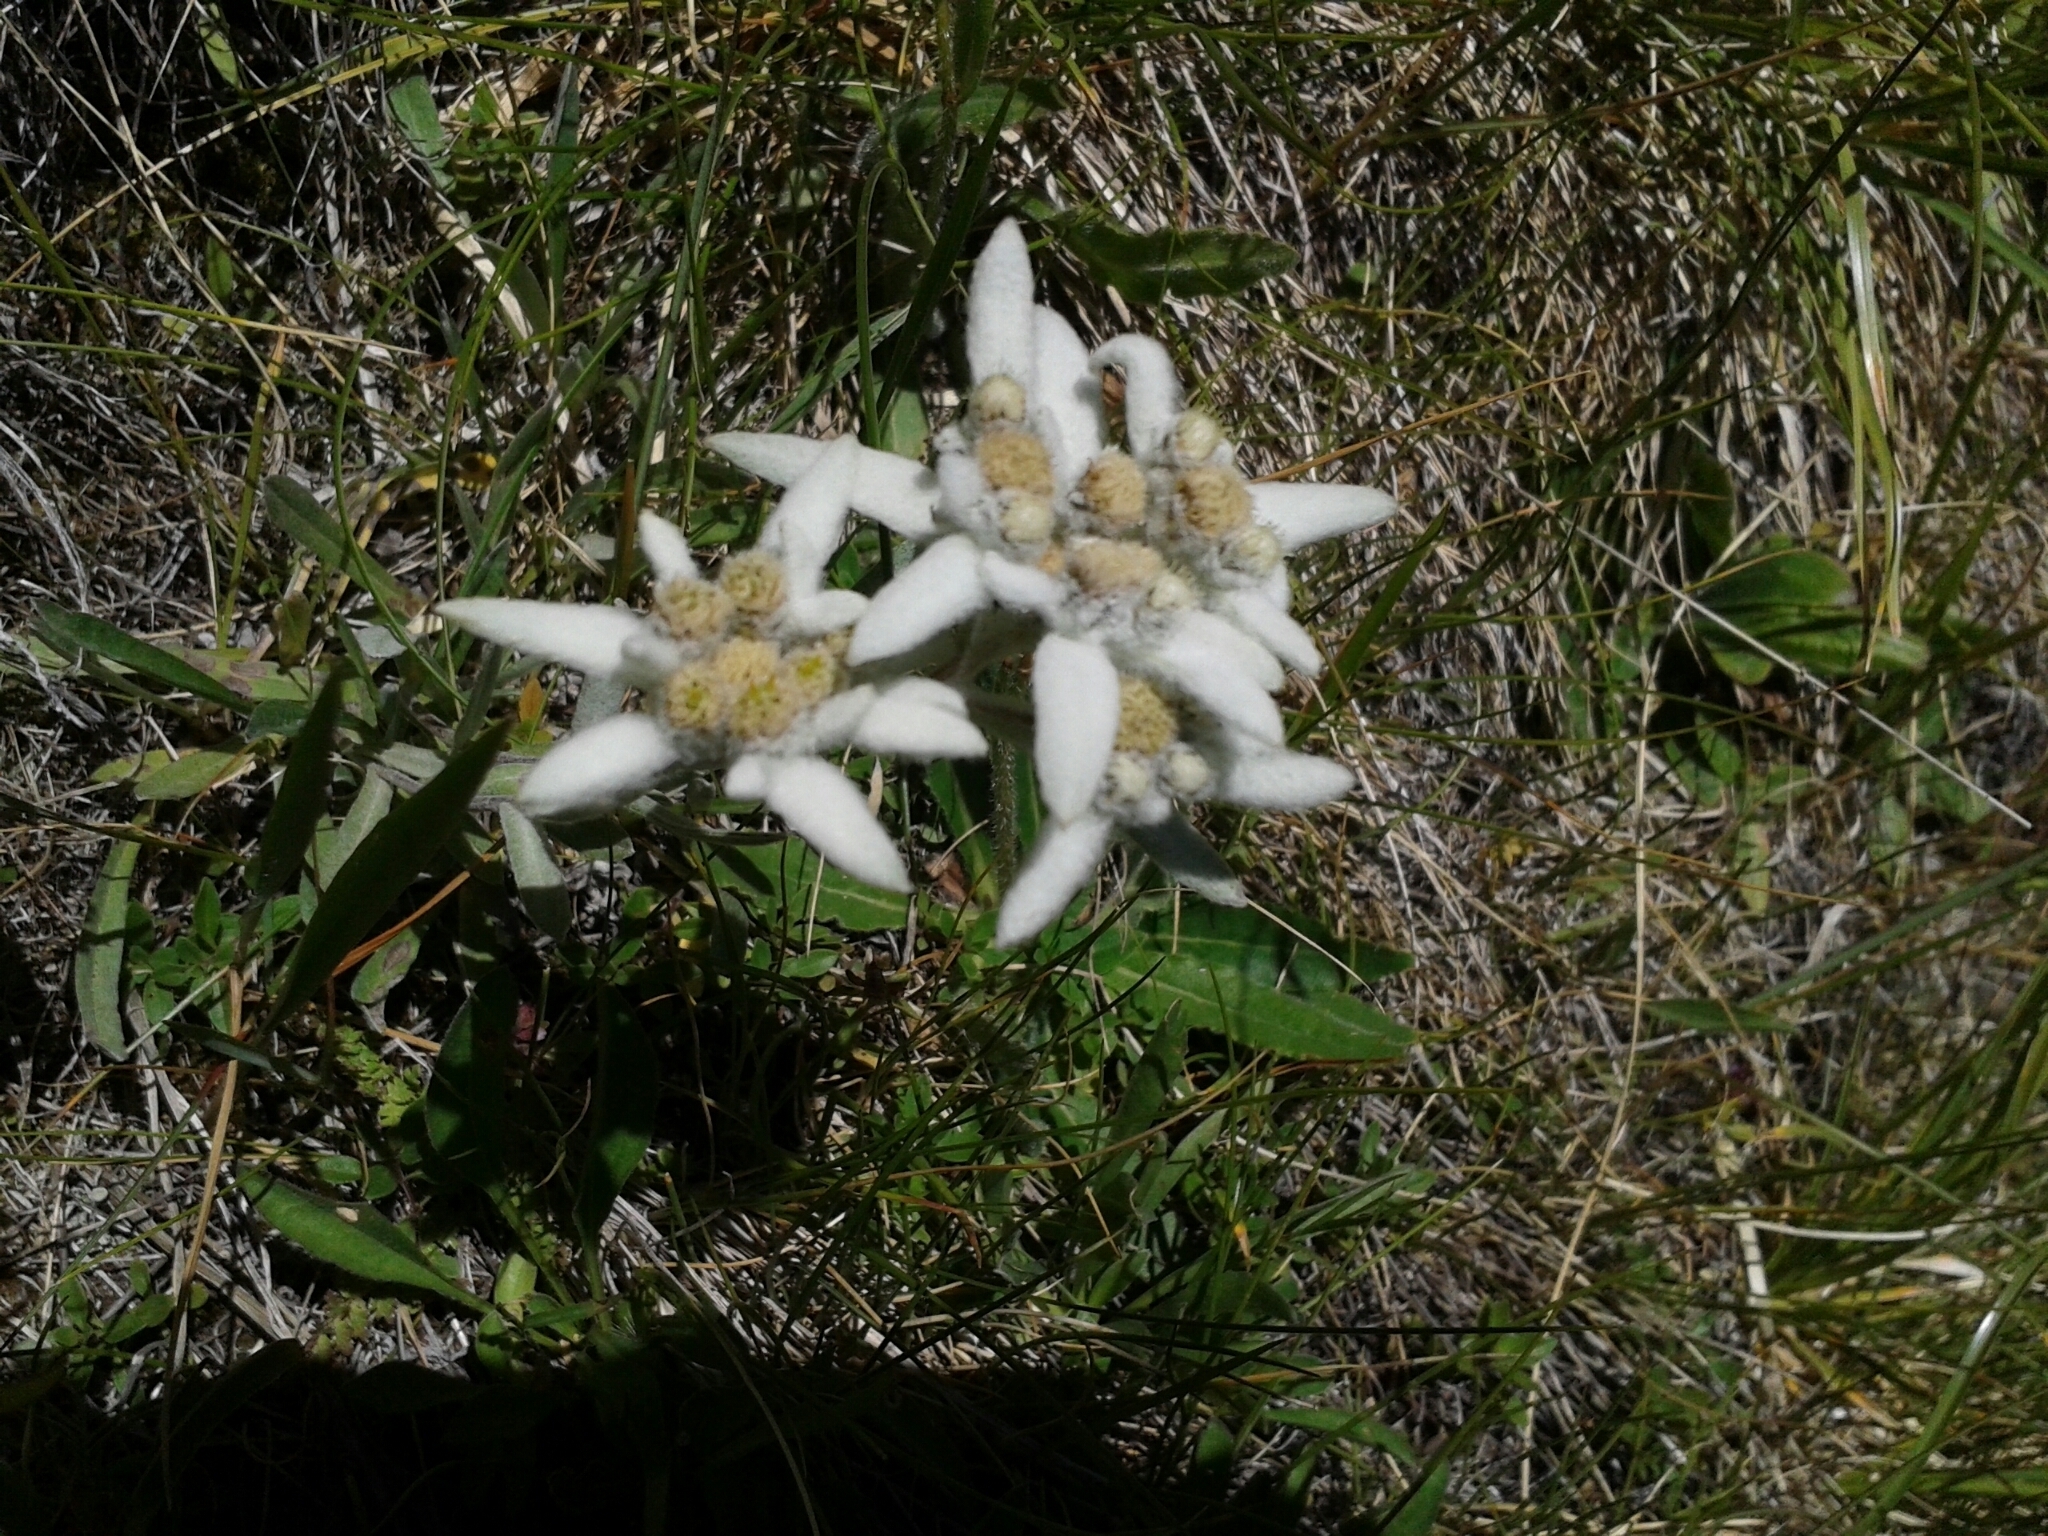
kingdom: Plantae
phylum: Tracheophyta
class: Magnoliopsida
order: Asterales
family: Asteraceae
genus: Leontopodium
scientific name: Leontopodium nivale
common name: Edelweiss
